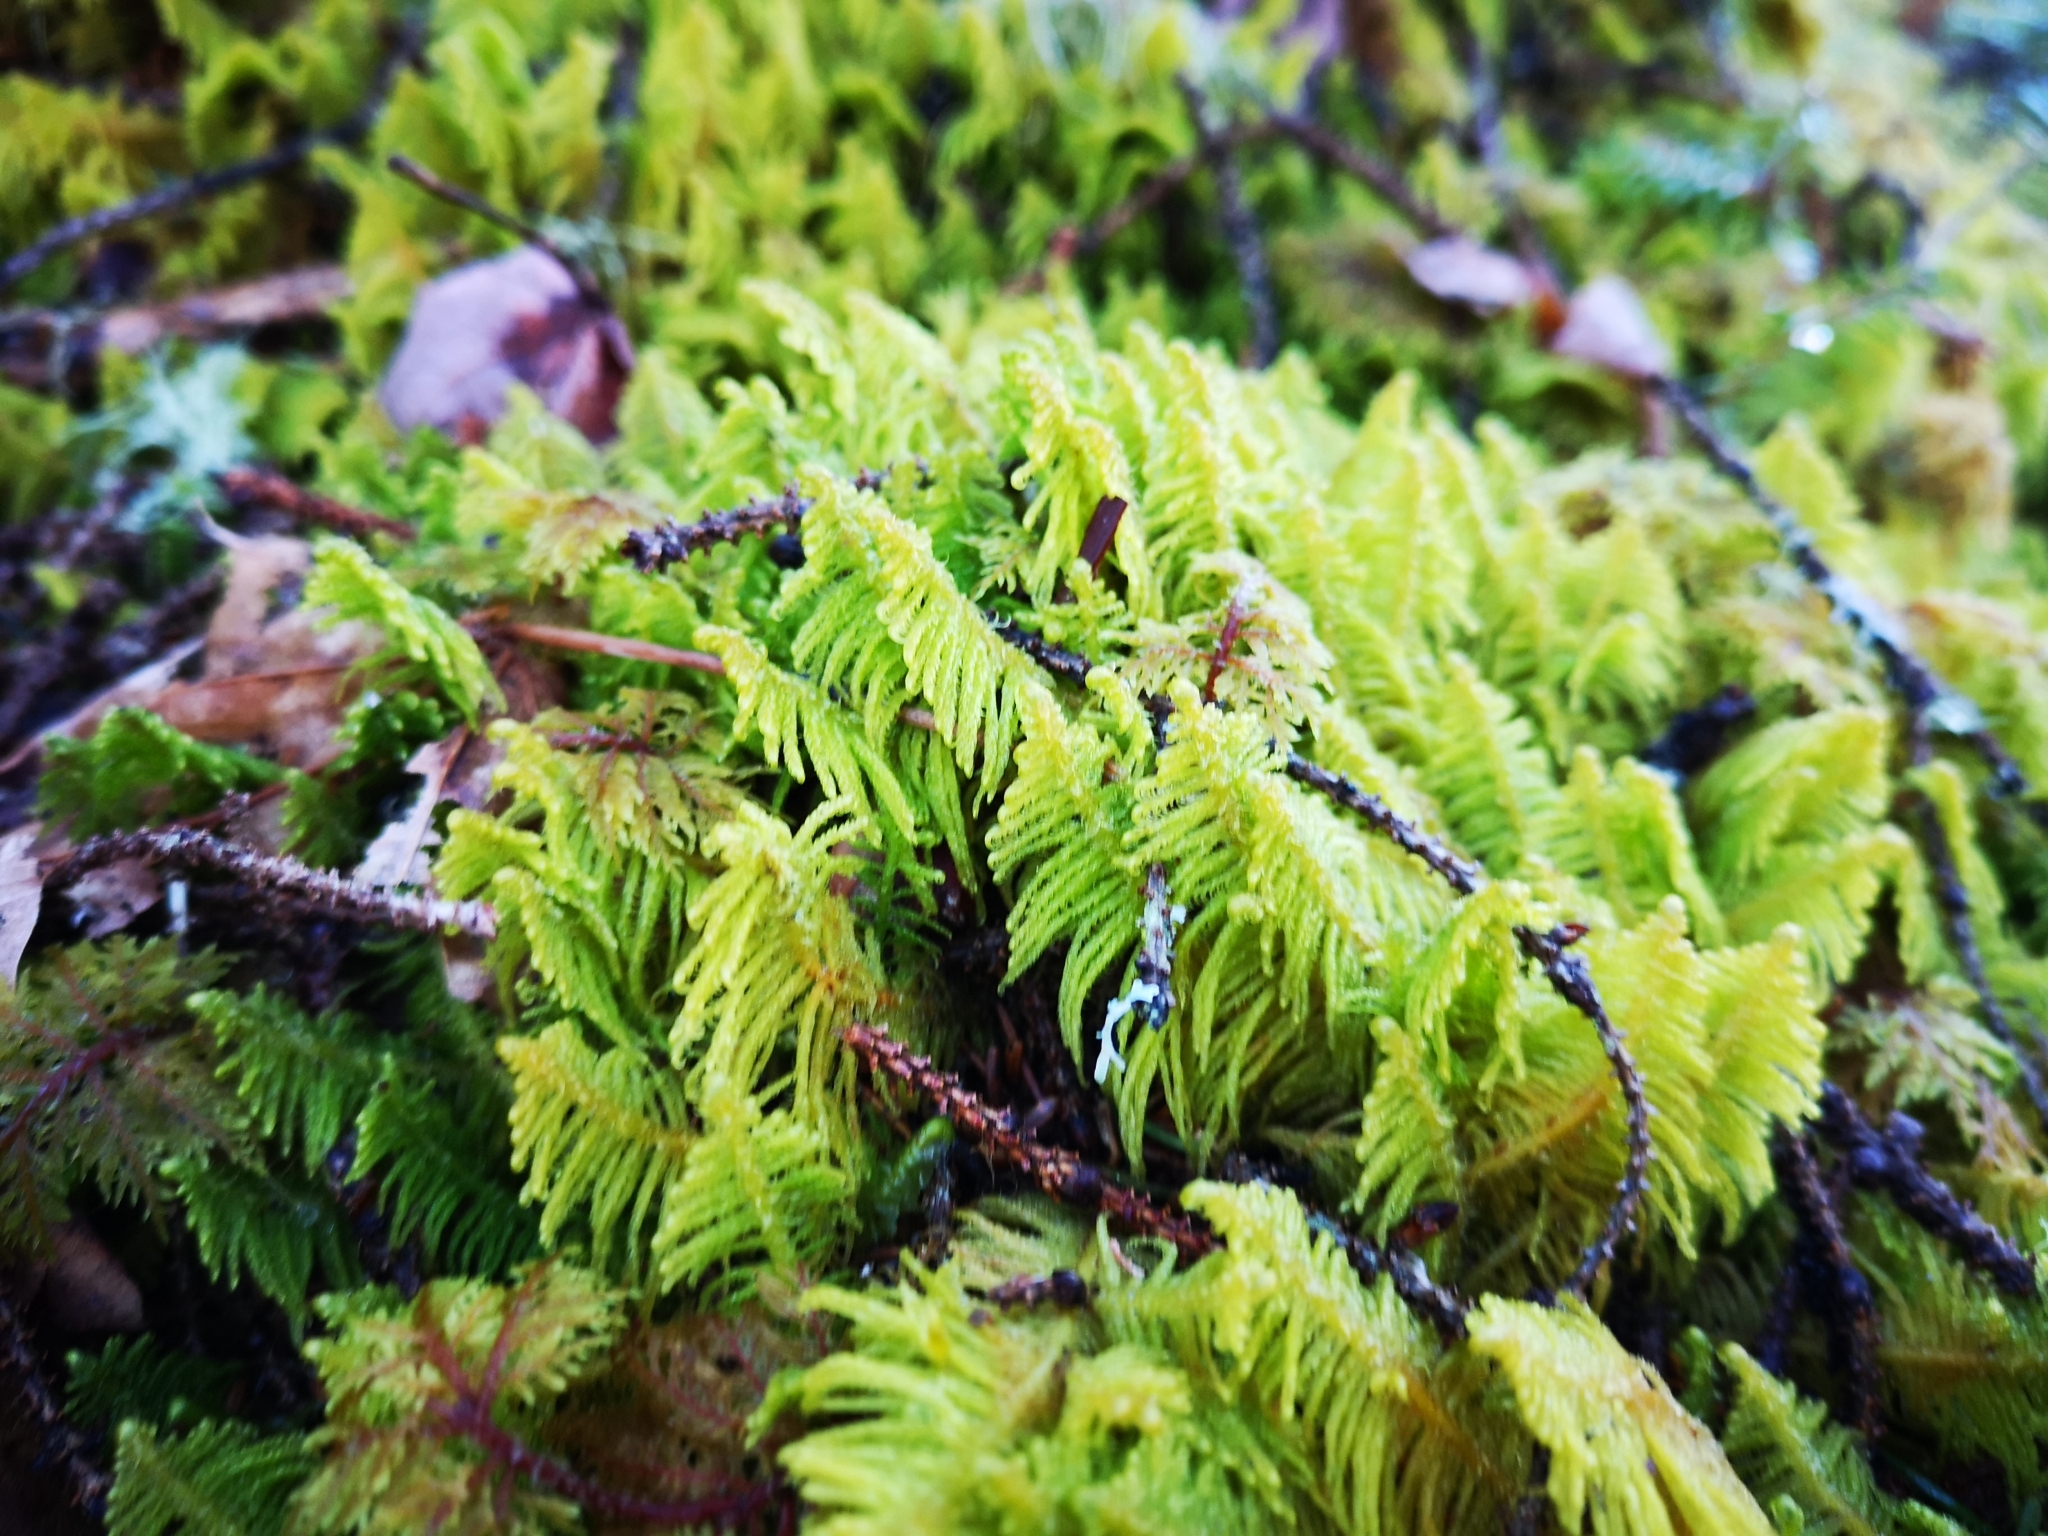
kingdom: Plantae
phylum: Bryophyta
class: Bryopsida
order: Hypnales
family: Pylaisiaceae
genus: Ptilium
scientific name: Ptilium crista-castrensis
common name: Knight's plume moss
